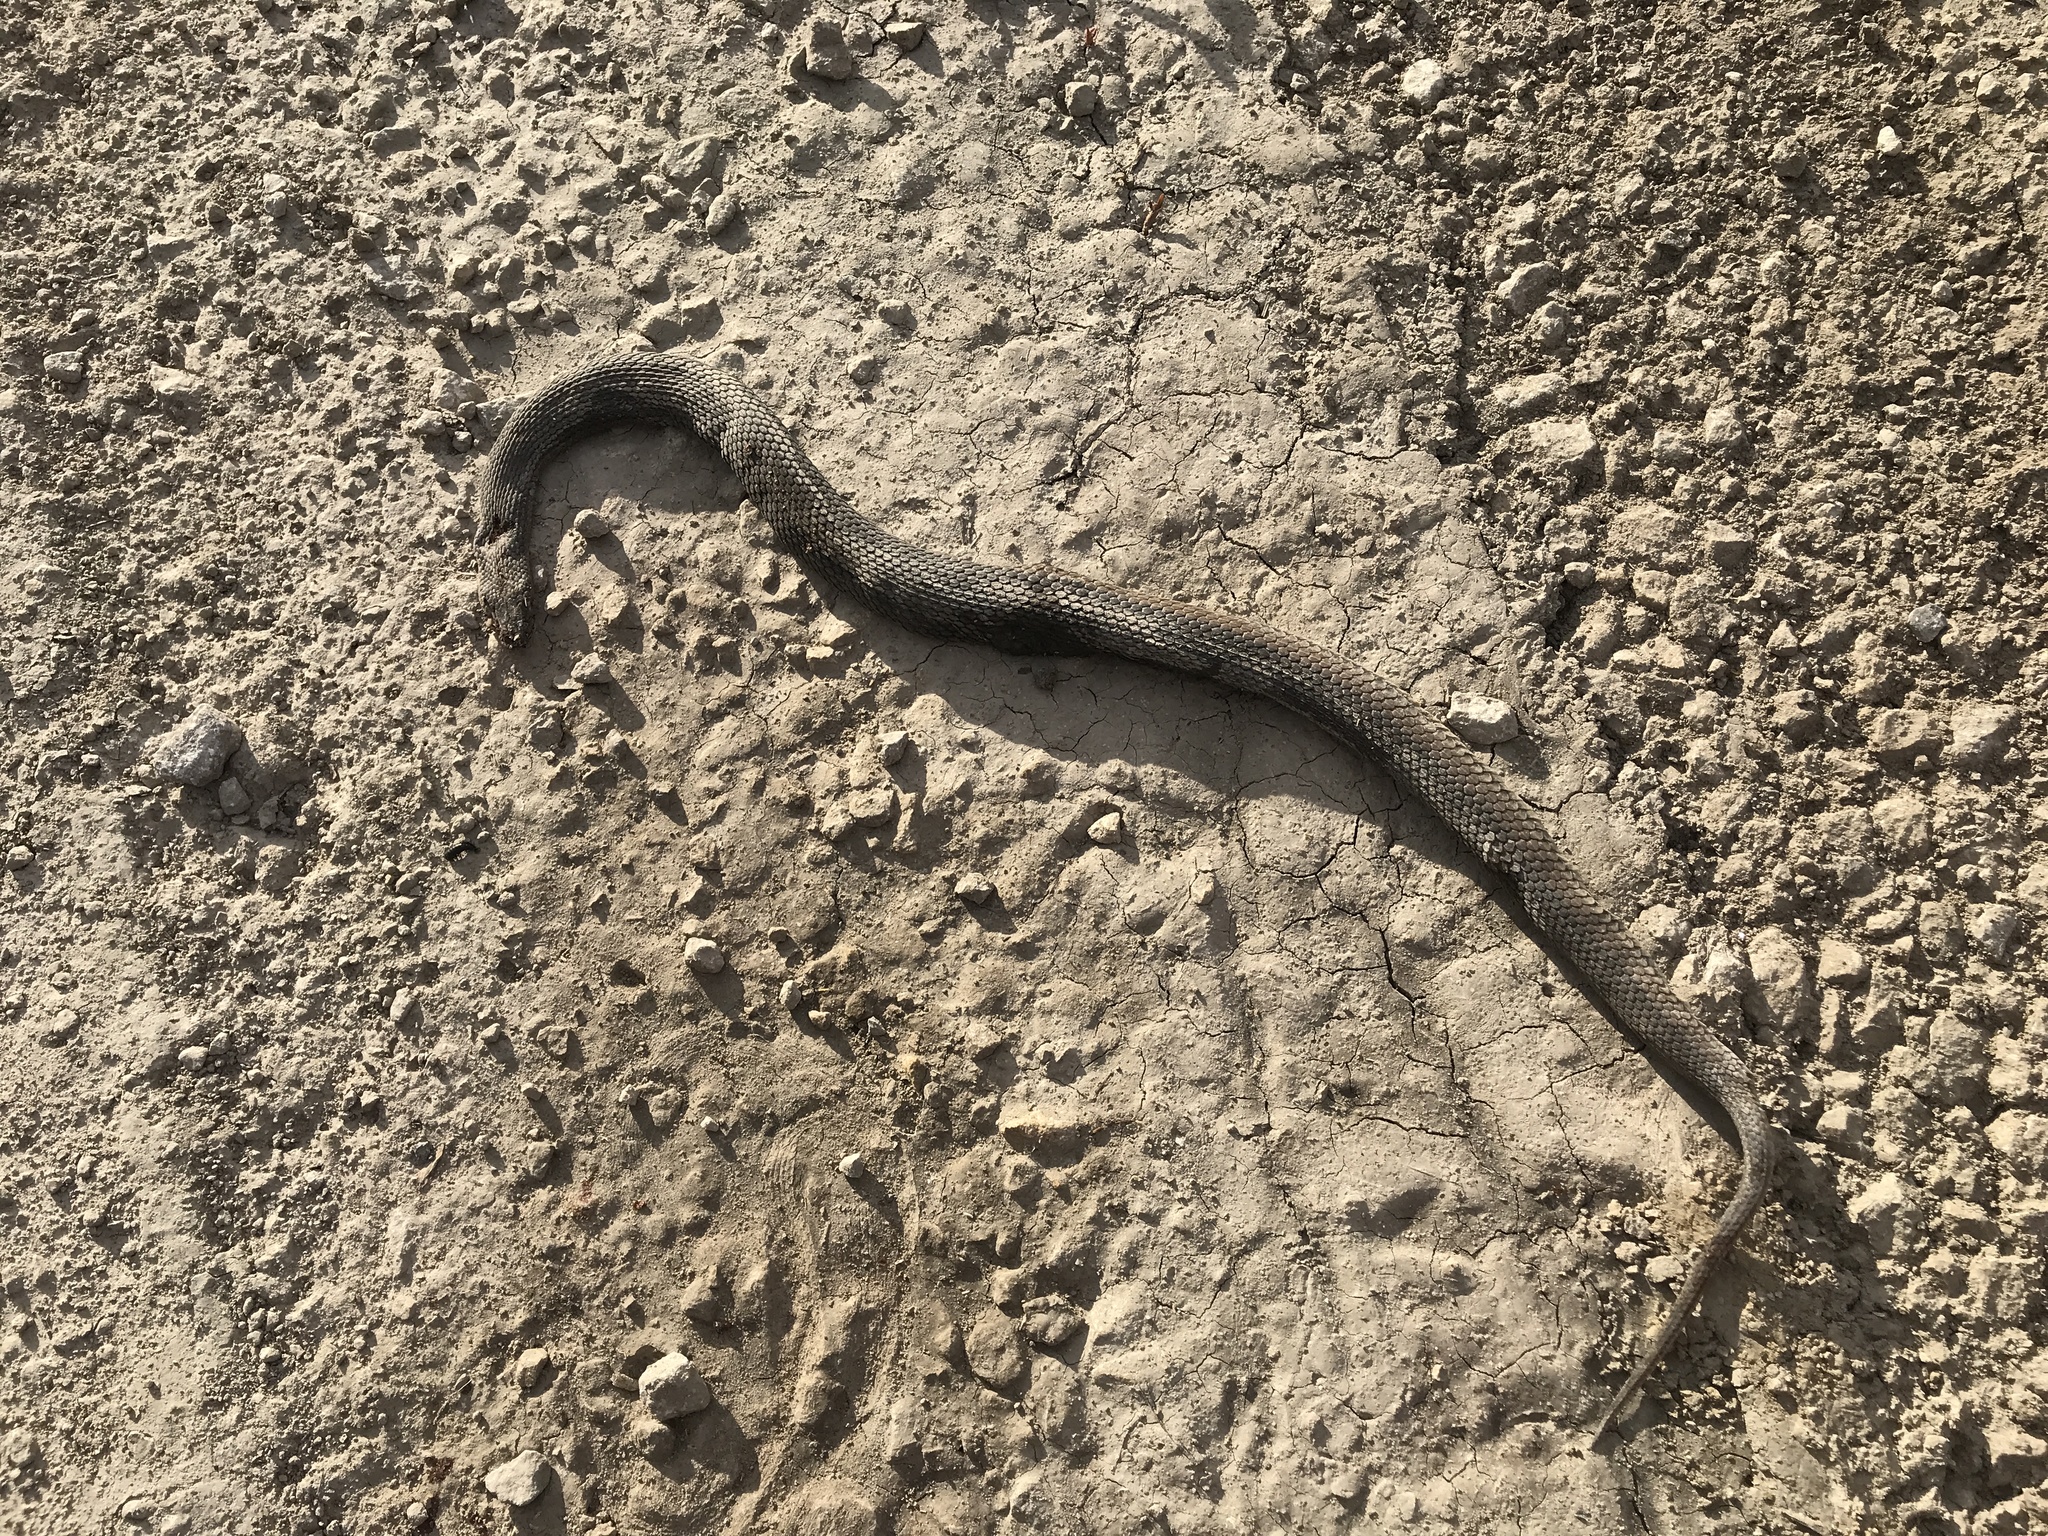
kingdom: Animalia
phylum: Chordata
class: Squamata
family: Colubridae
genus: Regina
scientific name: Regina grahamii
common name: Graham's crayfish snake
